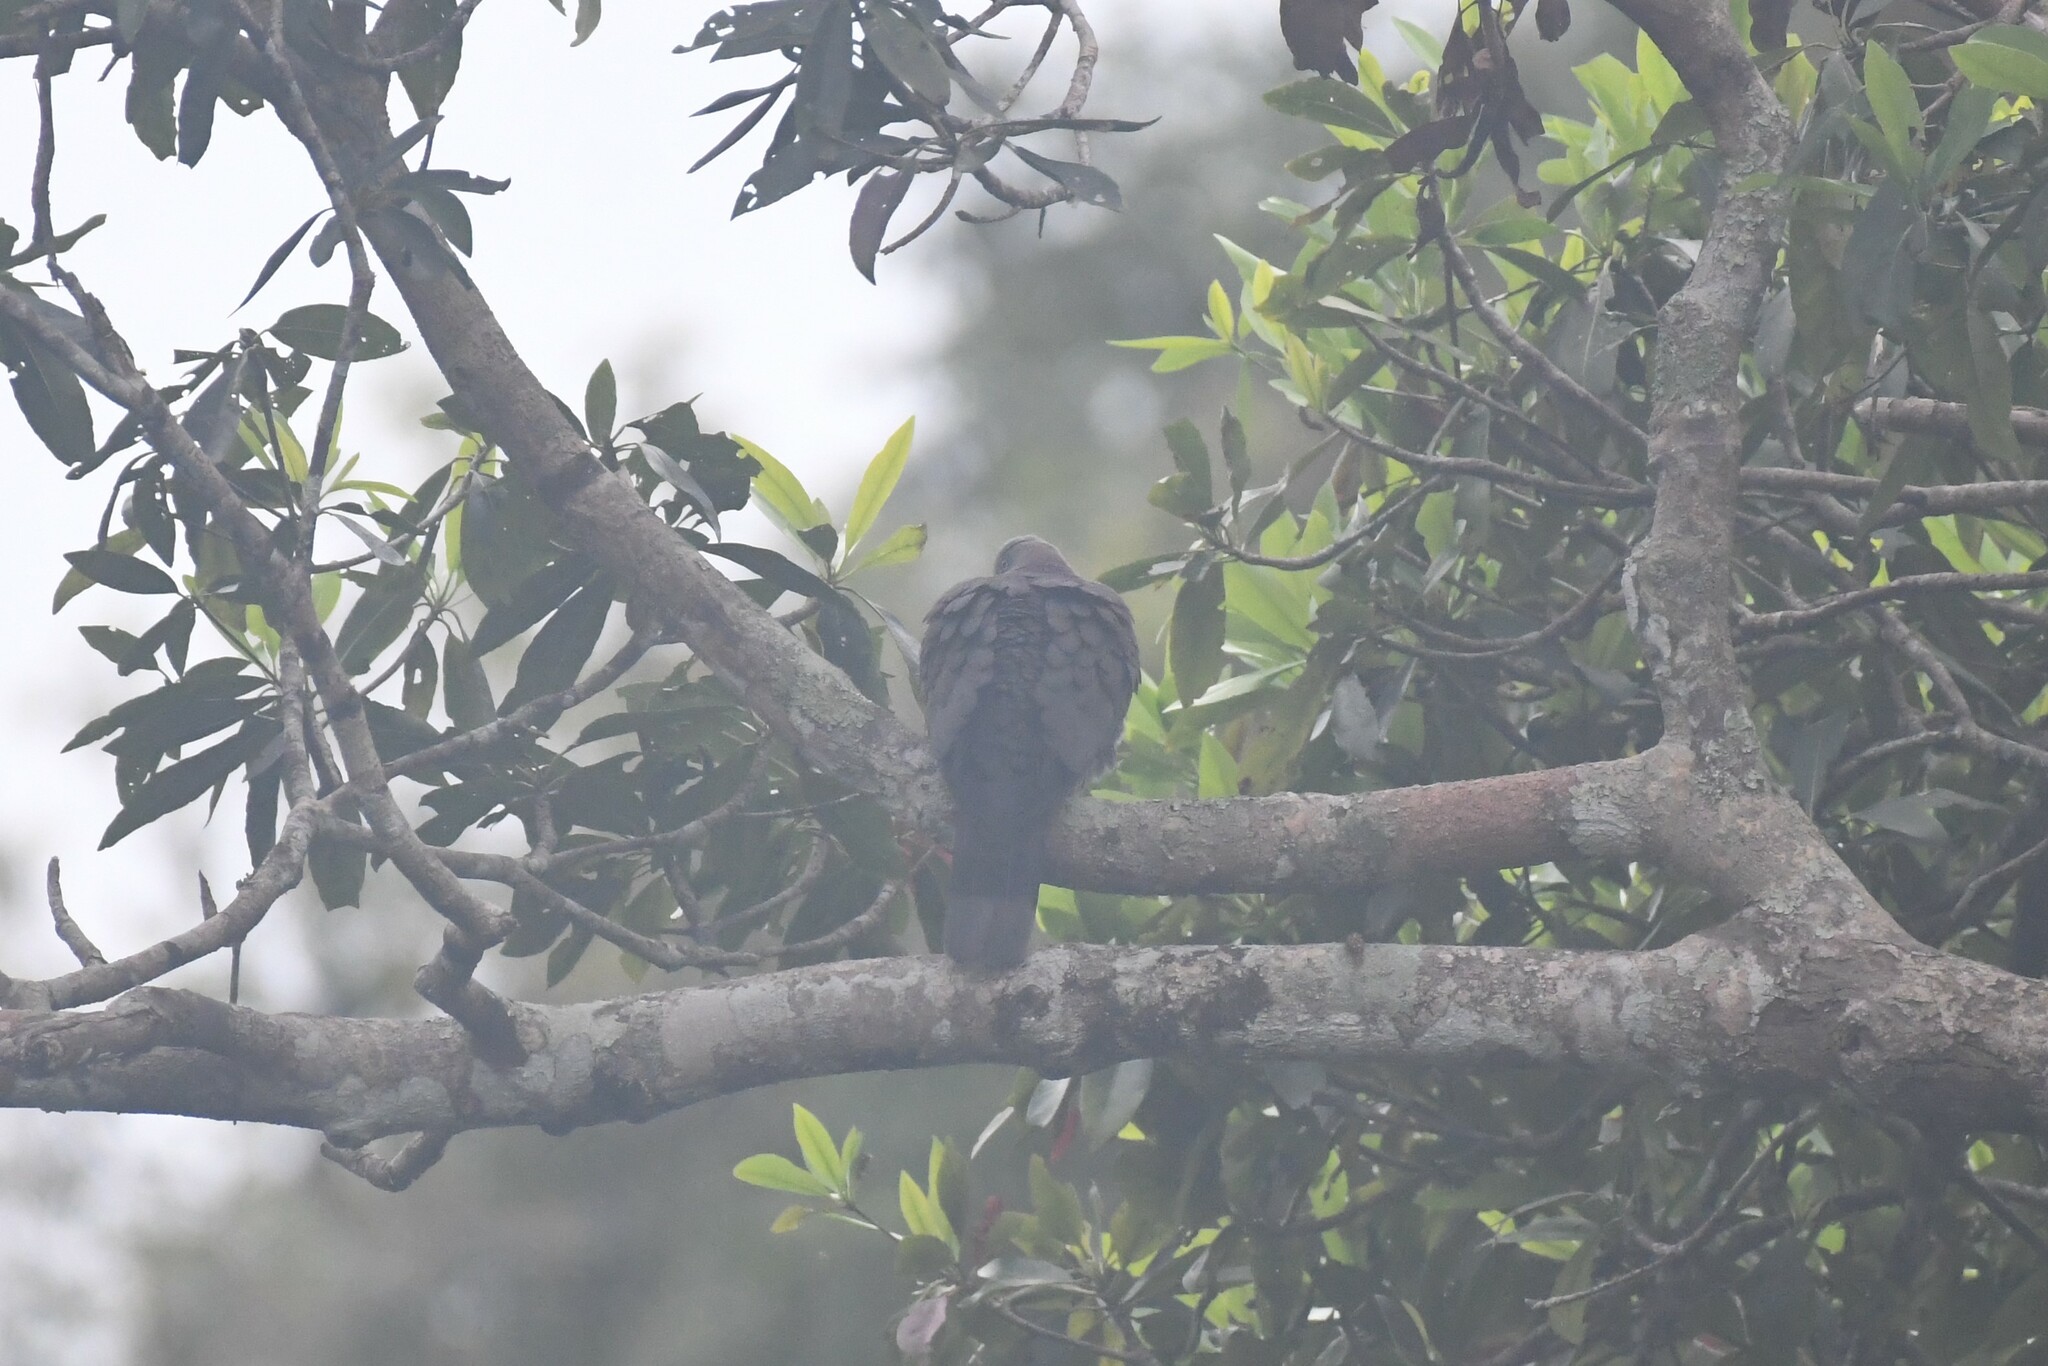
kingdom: Animalia
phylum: Chordata
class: Aves
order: Columbiformes
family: Columbidae
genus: Ducula
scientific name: Ducula badia
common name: Mountain imperial pigeon
